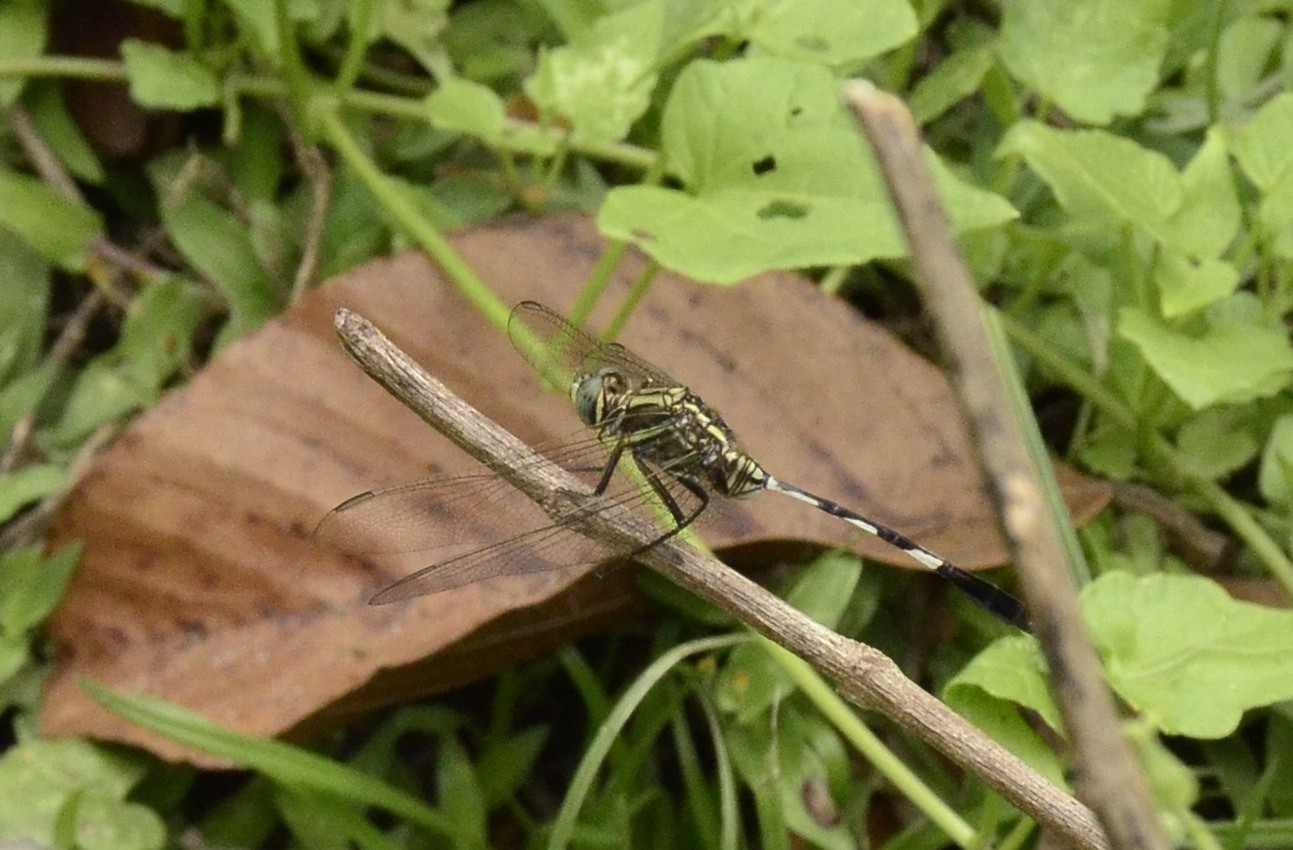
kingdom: Animalia
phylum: Arthropoda
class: Insecta
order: Odonata
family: Libellulidae
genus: Orthetrum
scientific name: Orthetrum sabina
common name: Slender skimmer
